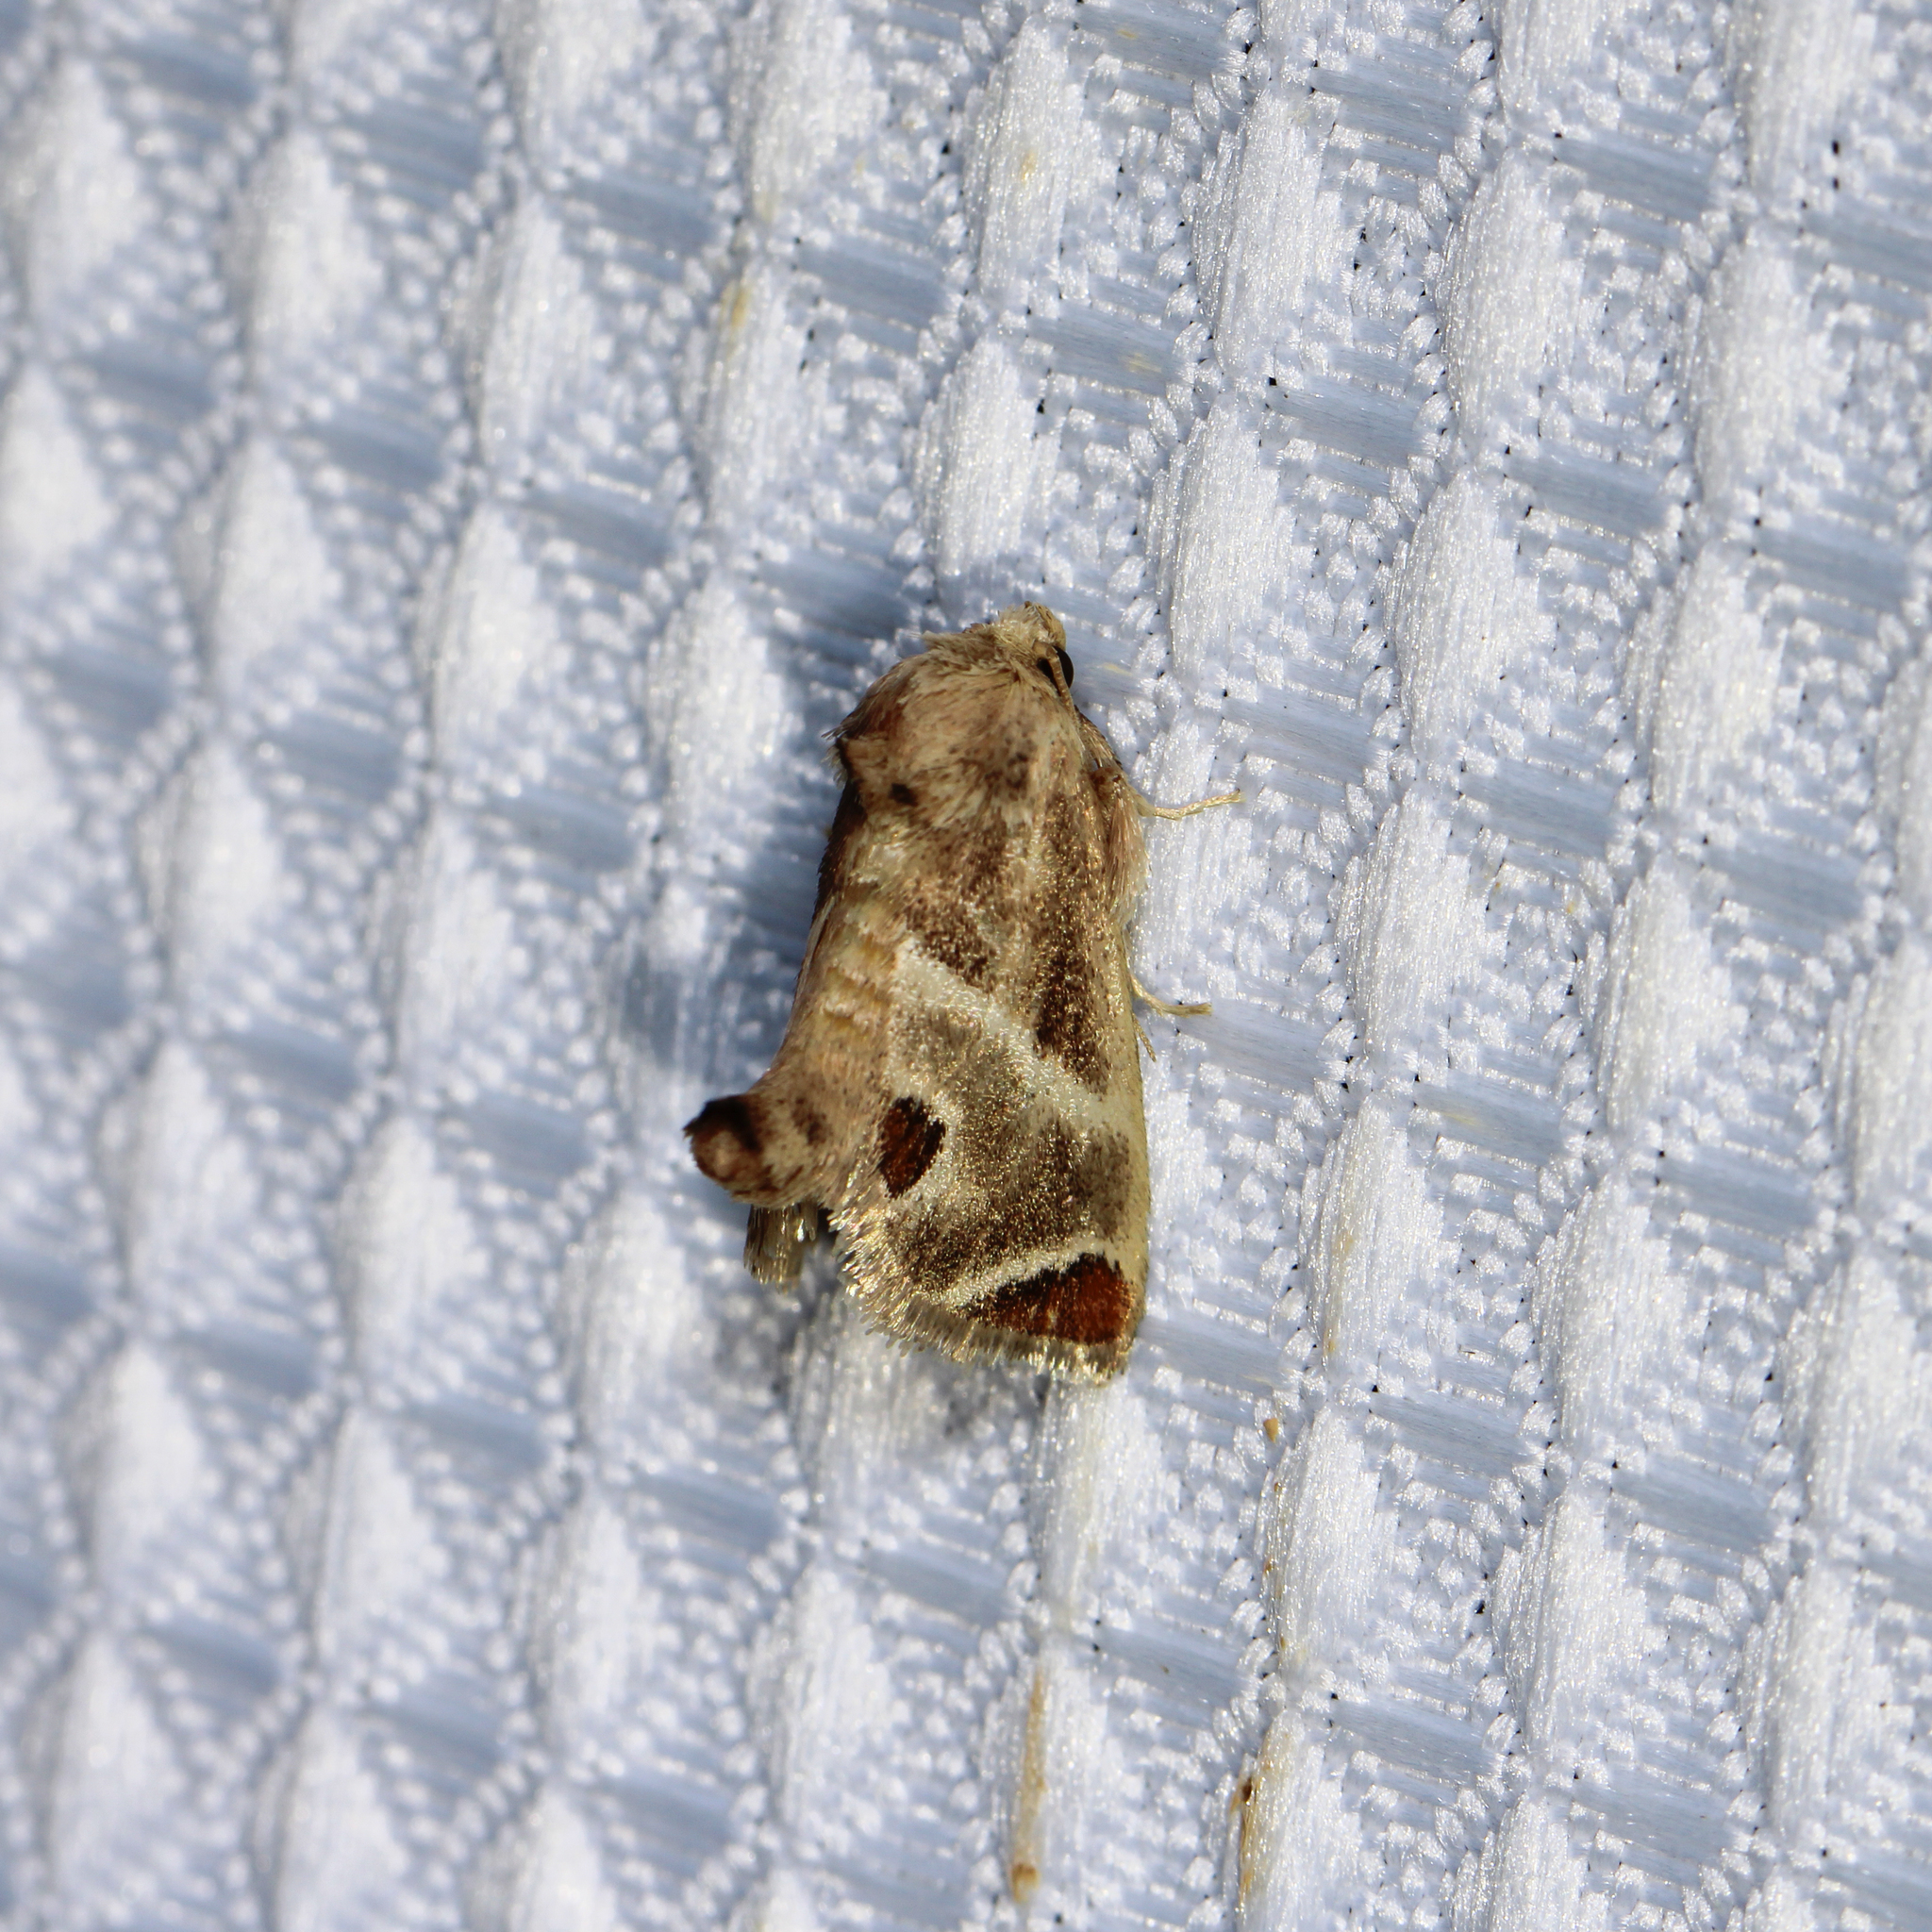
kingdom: Animalia
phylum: Arthropoda
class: Insecta
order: Lepidoptera
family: Limacodidae
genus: Apoda
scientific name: Apoda biguttata
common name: Shagreened slug moth
